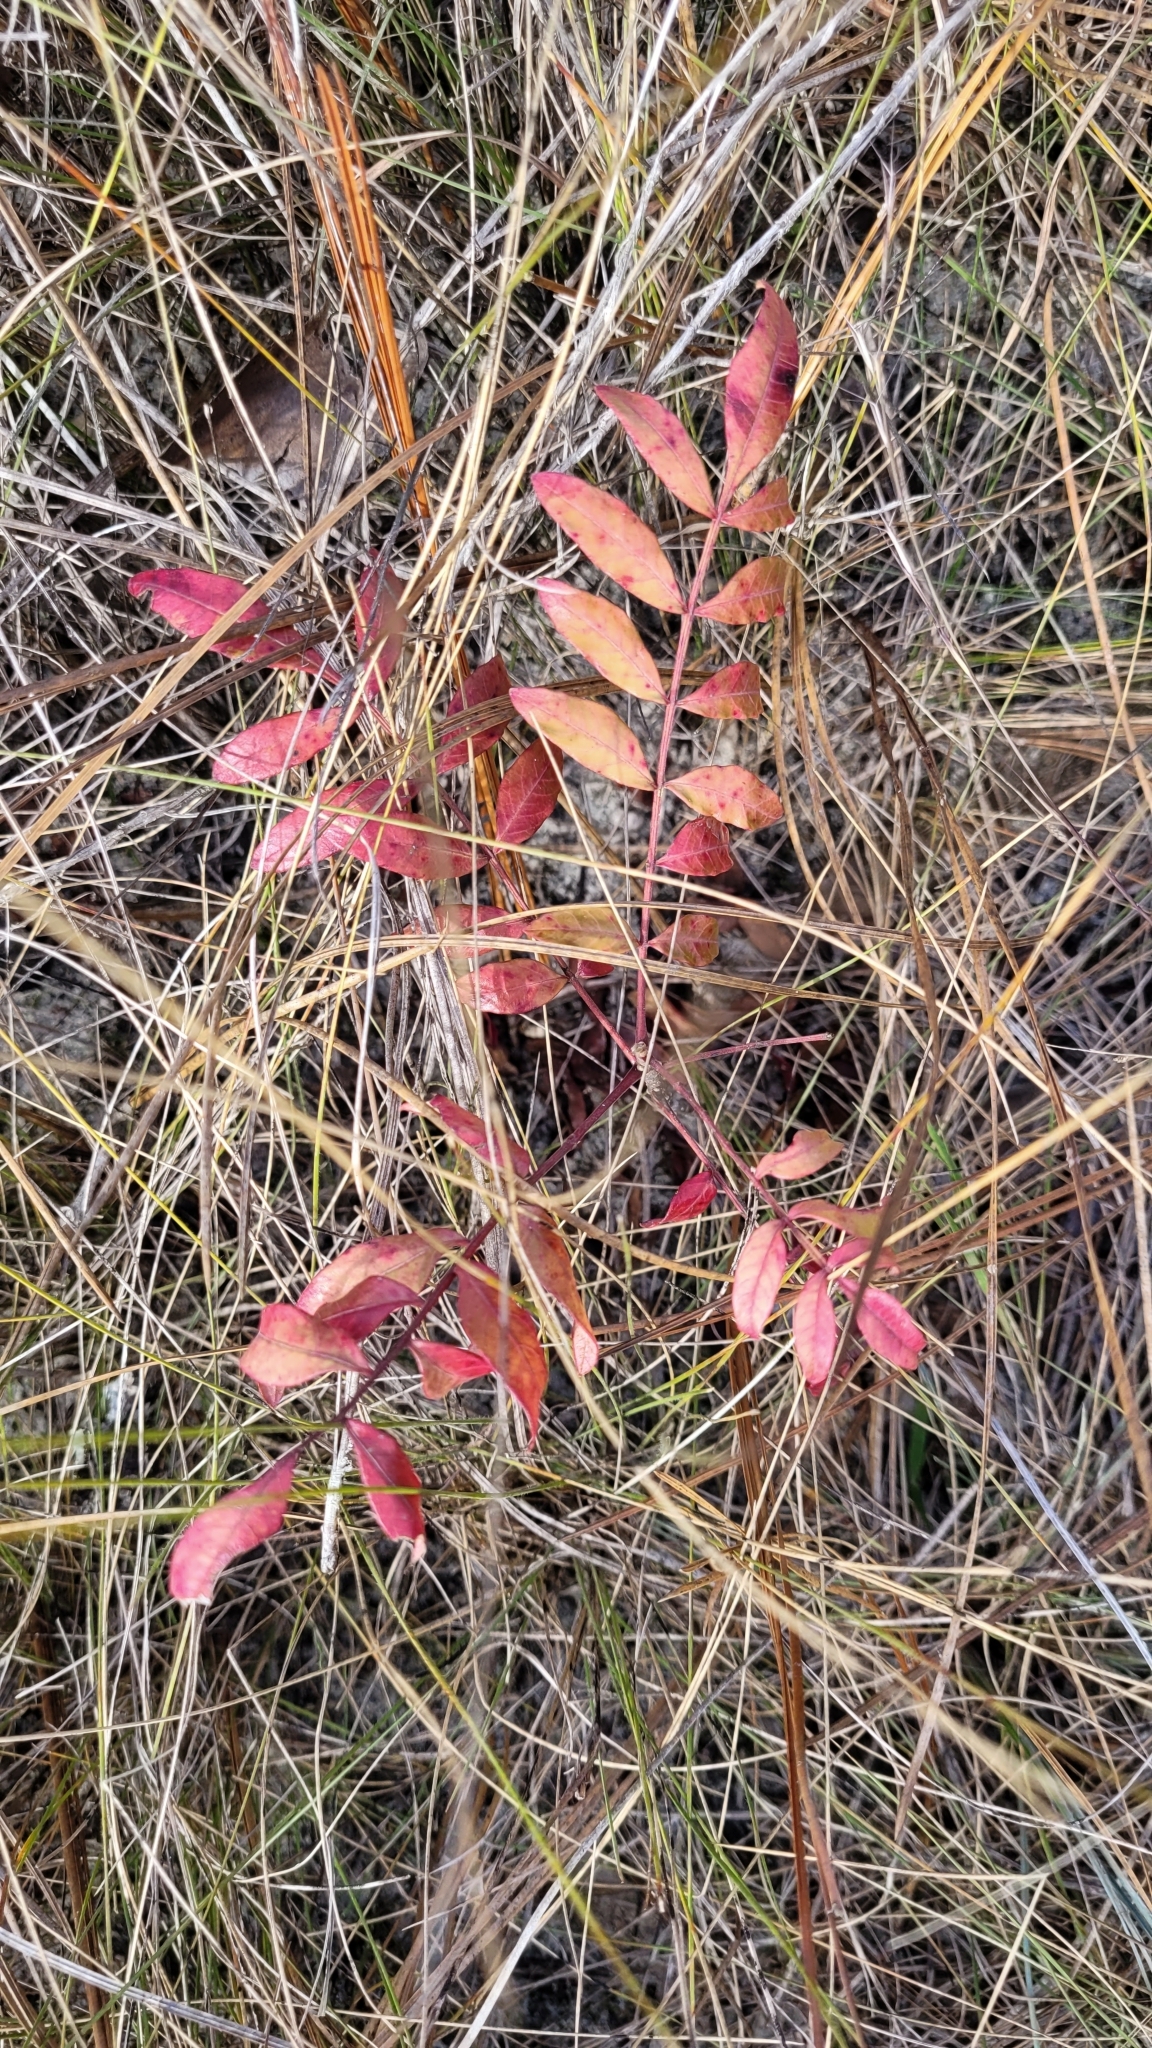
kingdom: Plantae
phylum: Tracheophyta
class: Magnoliopsida
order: Sapindales
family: Anacardiaceae
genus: Rhus
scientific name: Rhus copallina
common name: Shining sumac
